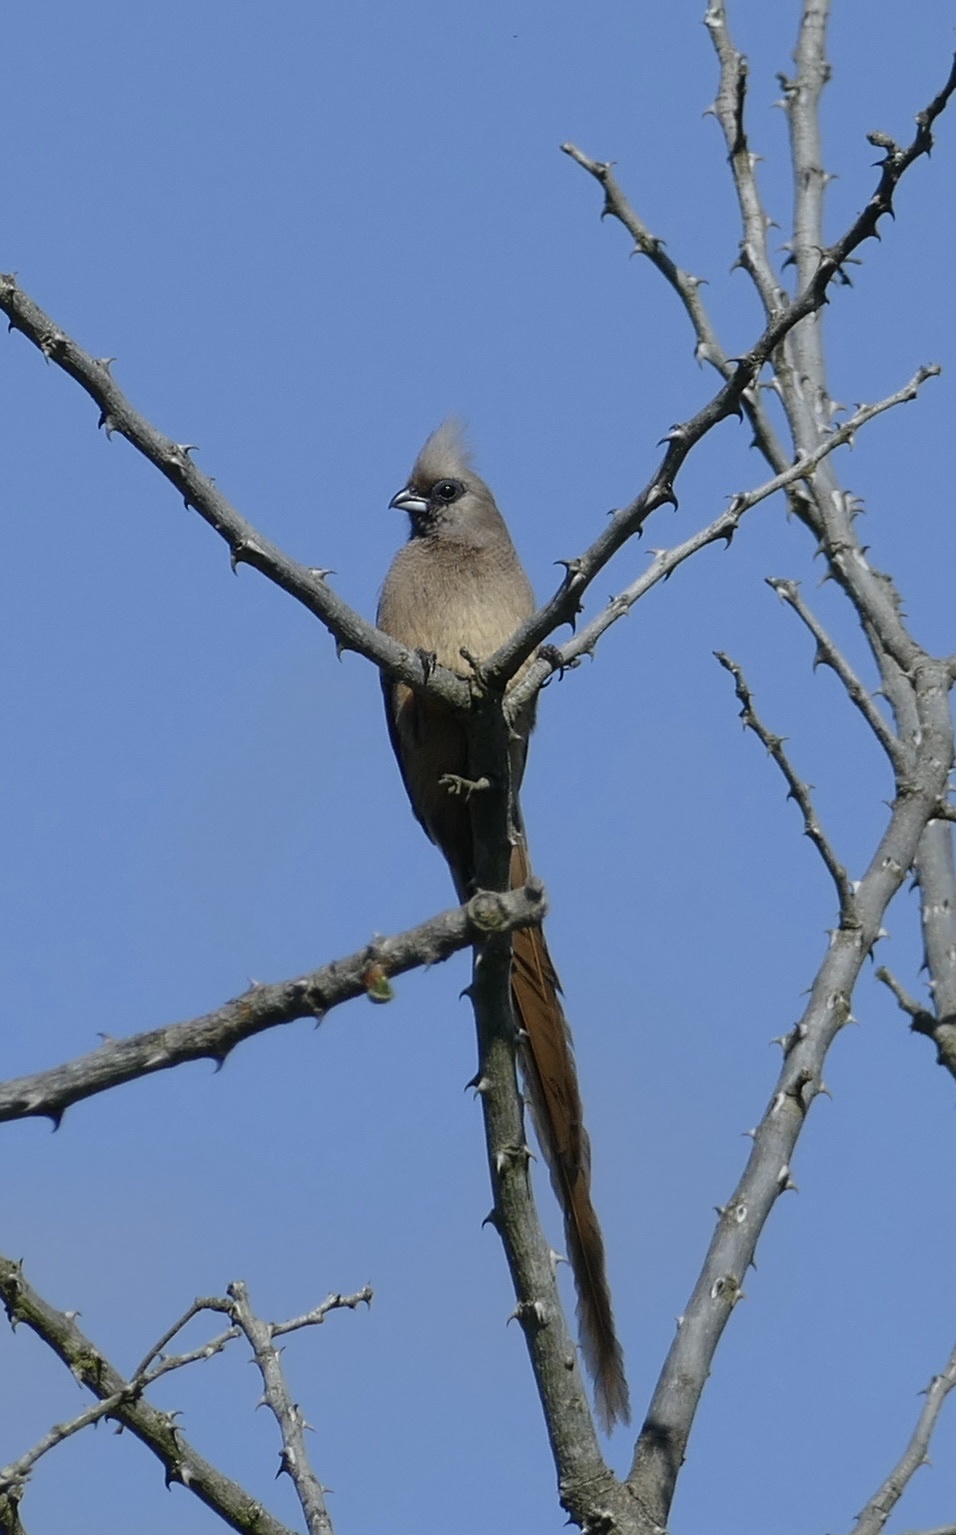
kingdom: Animalia
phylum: Chordata
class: Aves
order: Coliiformes
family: Coliidae
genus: Colius
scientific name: Colius striatus
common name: Speckled mousebird
